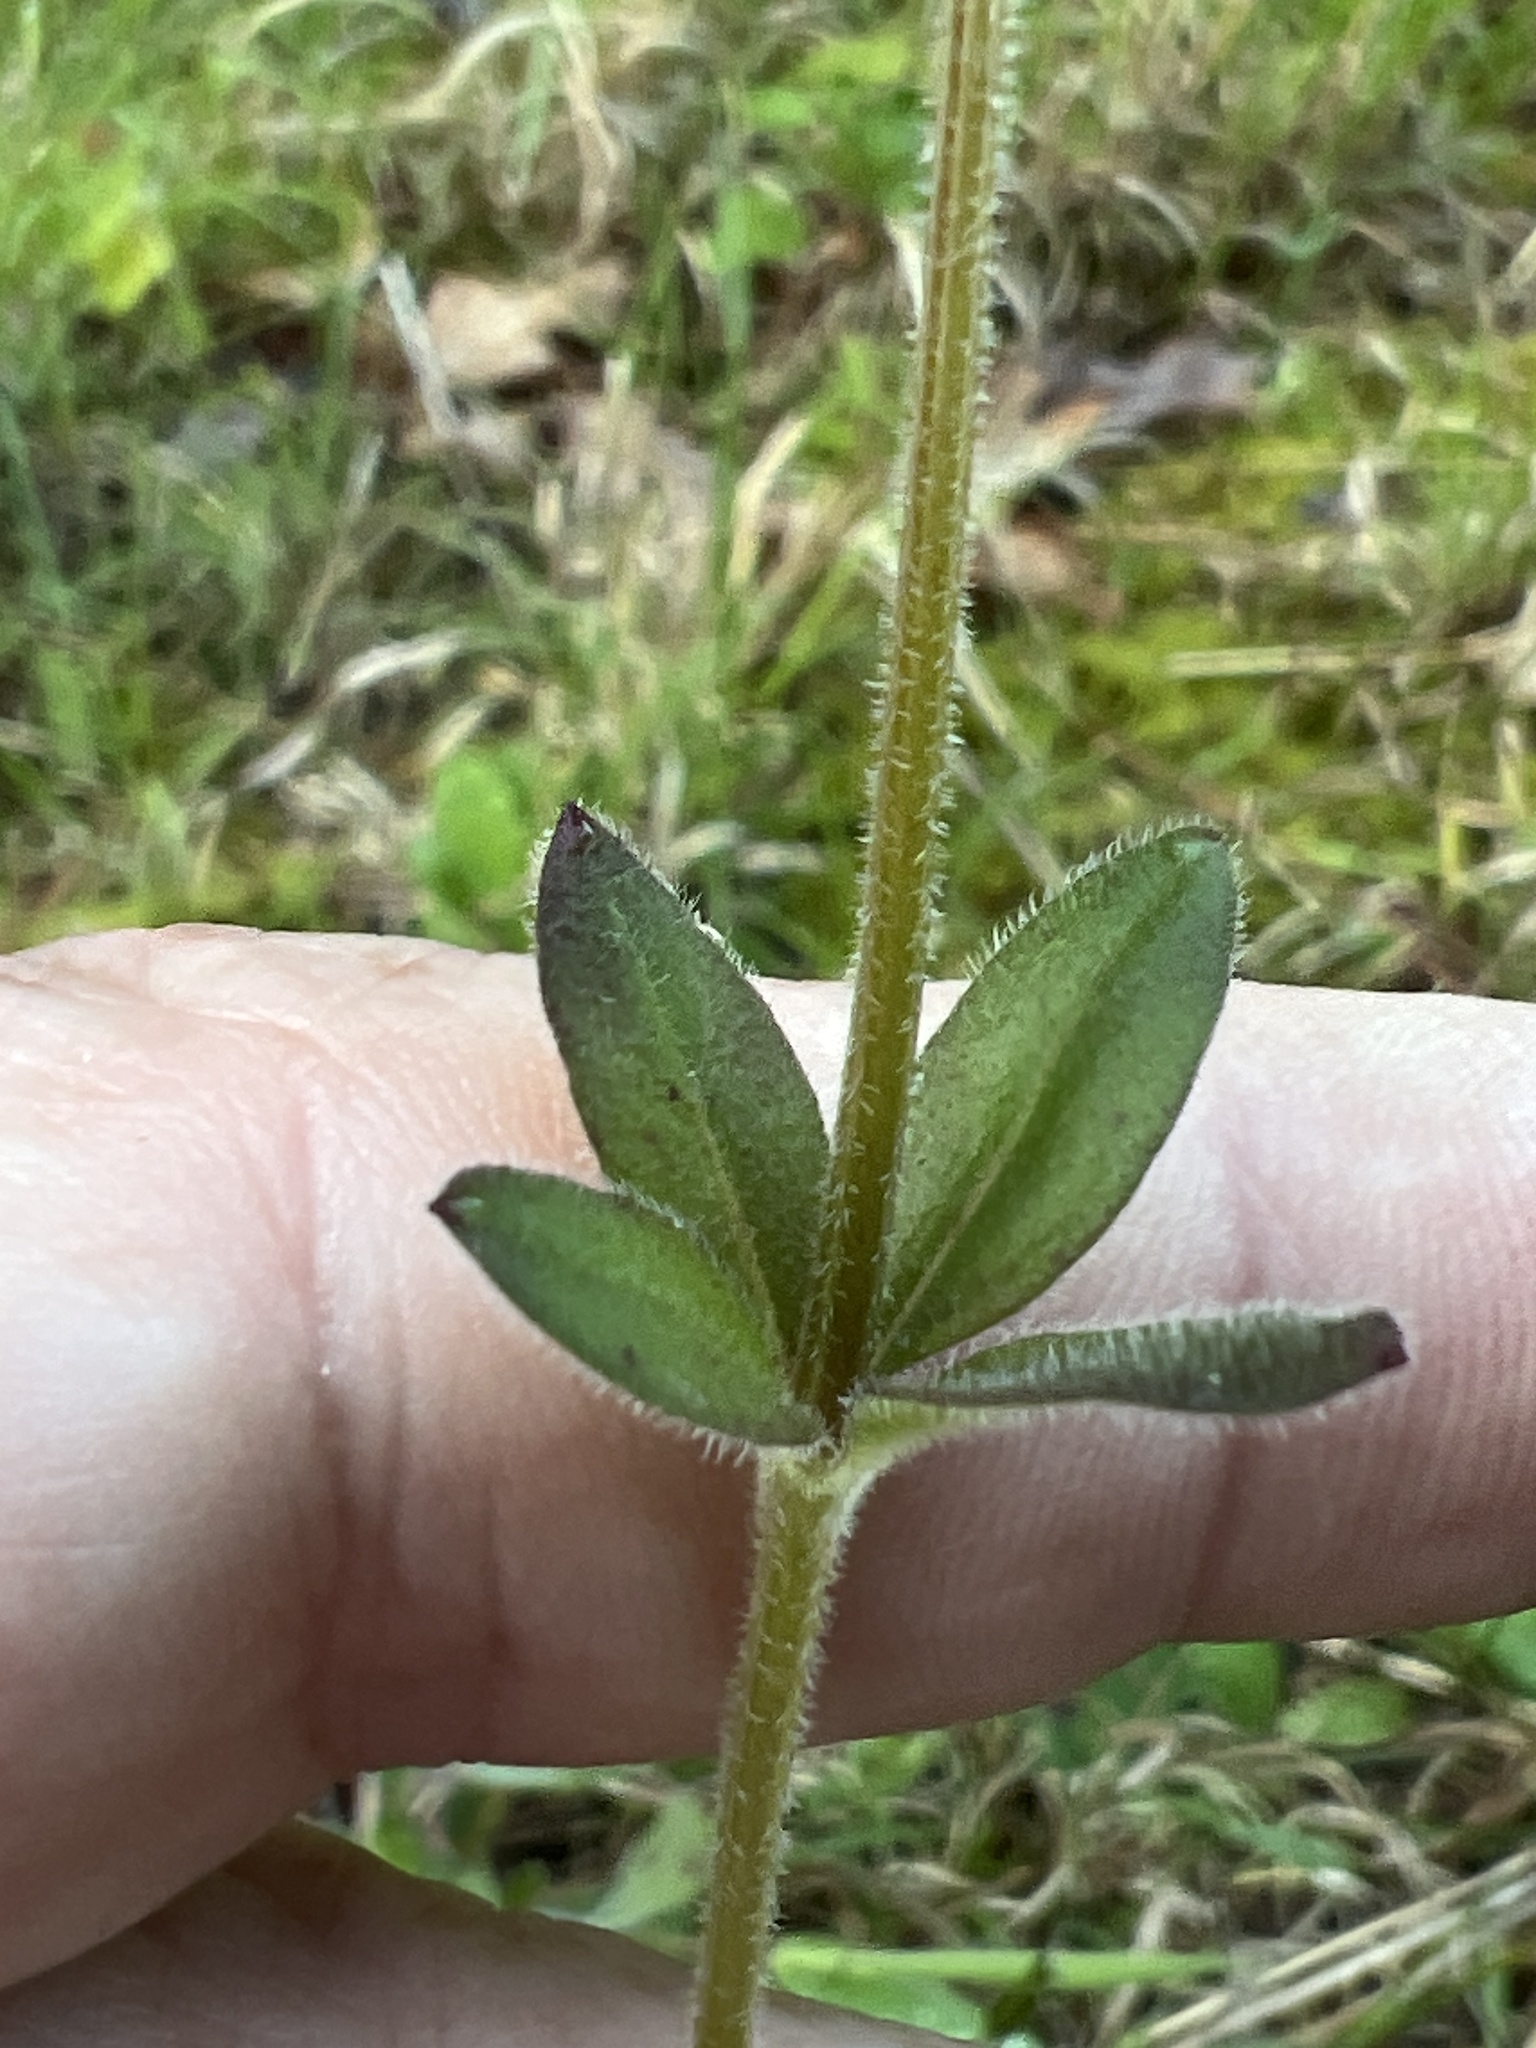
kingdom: Plantae
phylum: Tracheophyta
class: Magnoliopsida
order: Gentianales
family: Rubiaceae
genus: Galium
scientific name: Galium pilosum
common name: Hairy bedstraw
